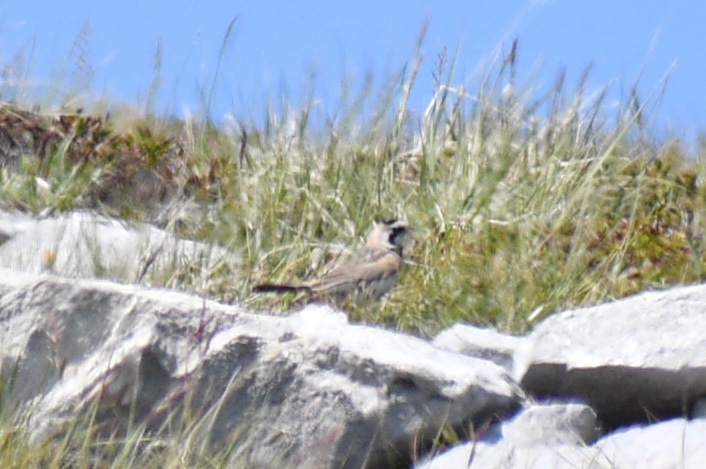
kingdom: Animalia
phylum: Chordata
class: Aves
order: Passeriformes
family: Alaudidae
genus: Eremophila
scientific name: Eremophila alpestris
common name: Horned lark
